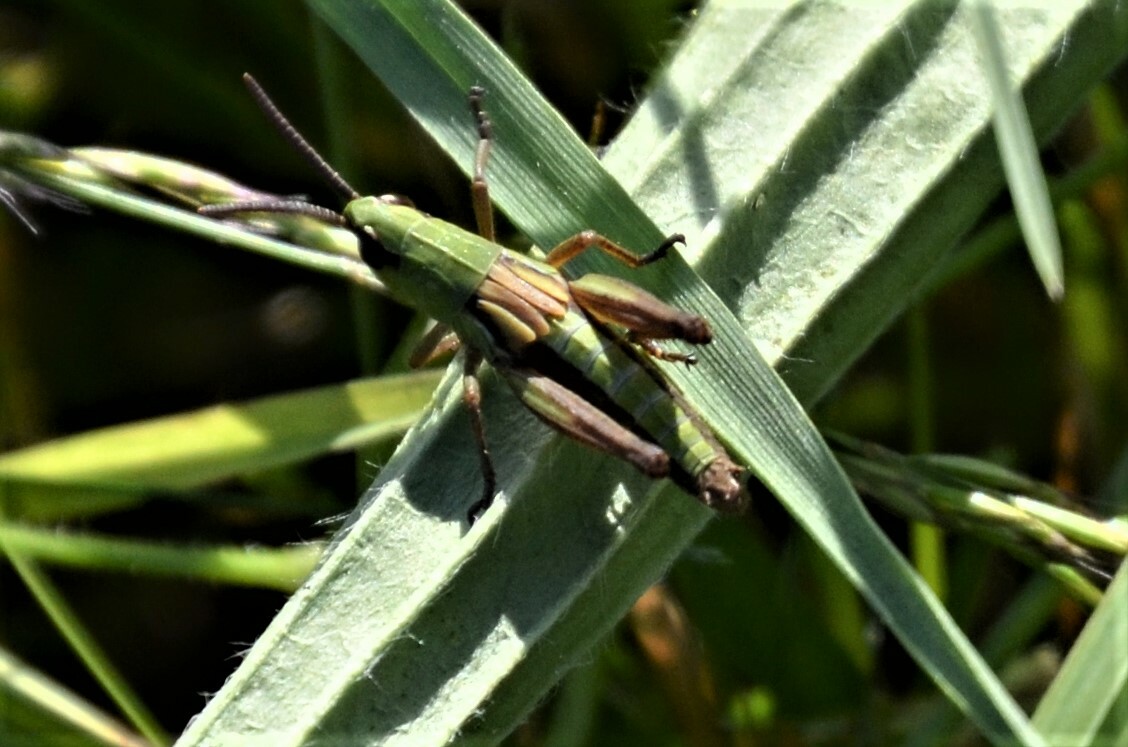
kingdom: Animalia
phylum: Arthropoda
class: Insecta
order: Orthoptera
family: Acrididae
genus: Pseudochorthippus
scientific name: Pseudochorthippus parallelus
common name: Meadow grasshopper
